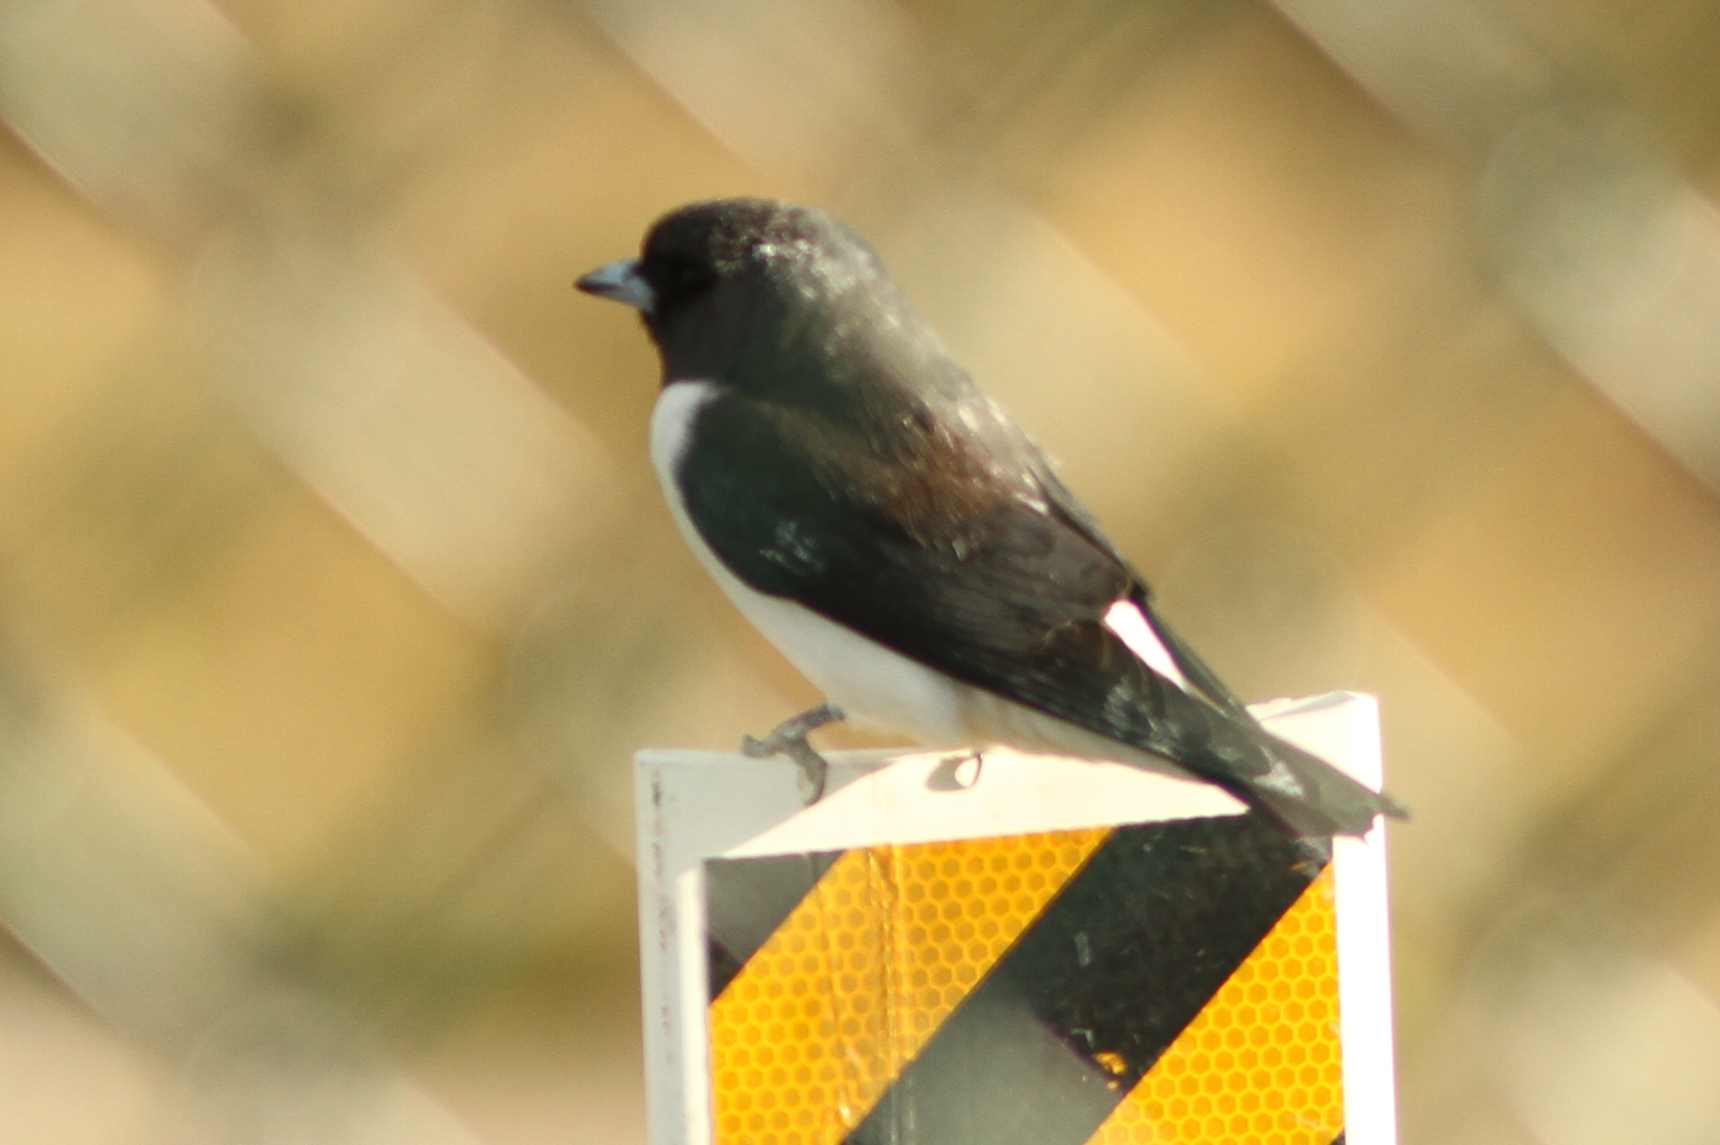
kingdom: Animalia
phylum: Chordata
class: Aves
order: Passeriformes
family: Artamidae
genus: Artamus
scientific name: Artamus leucoryn
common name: White-breasted woodswallow
